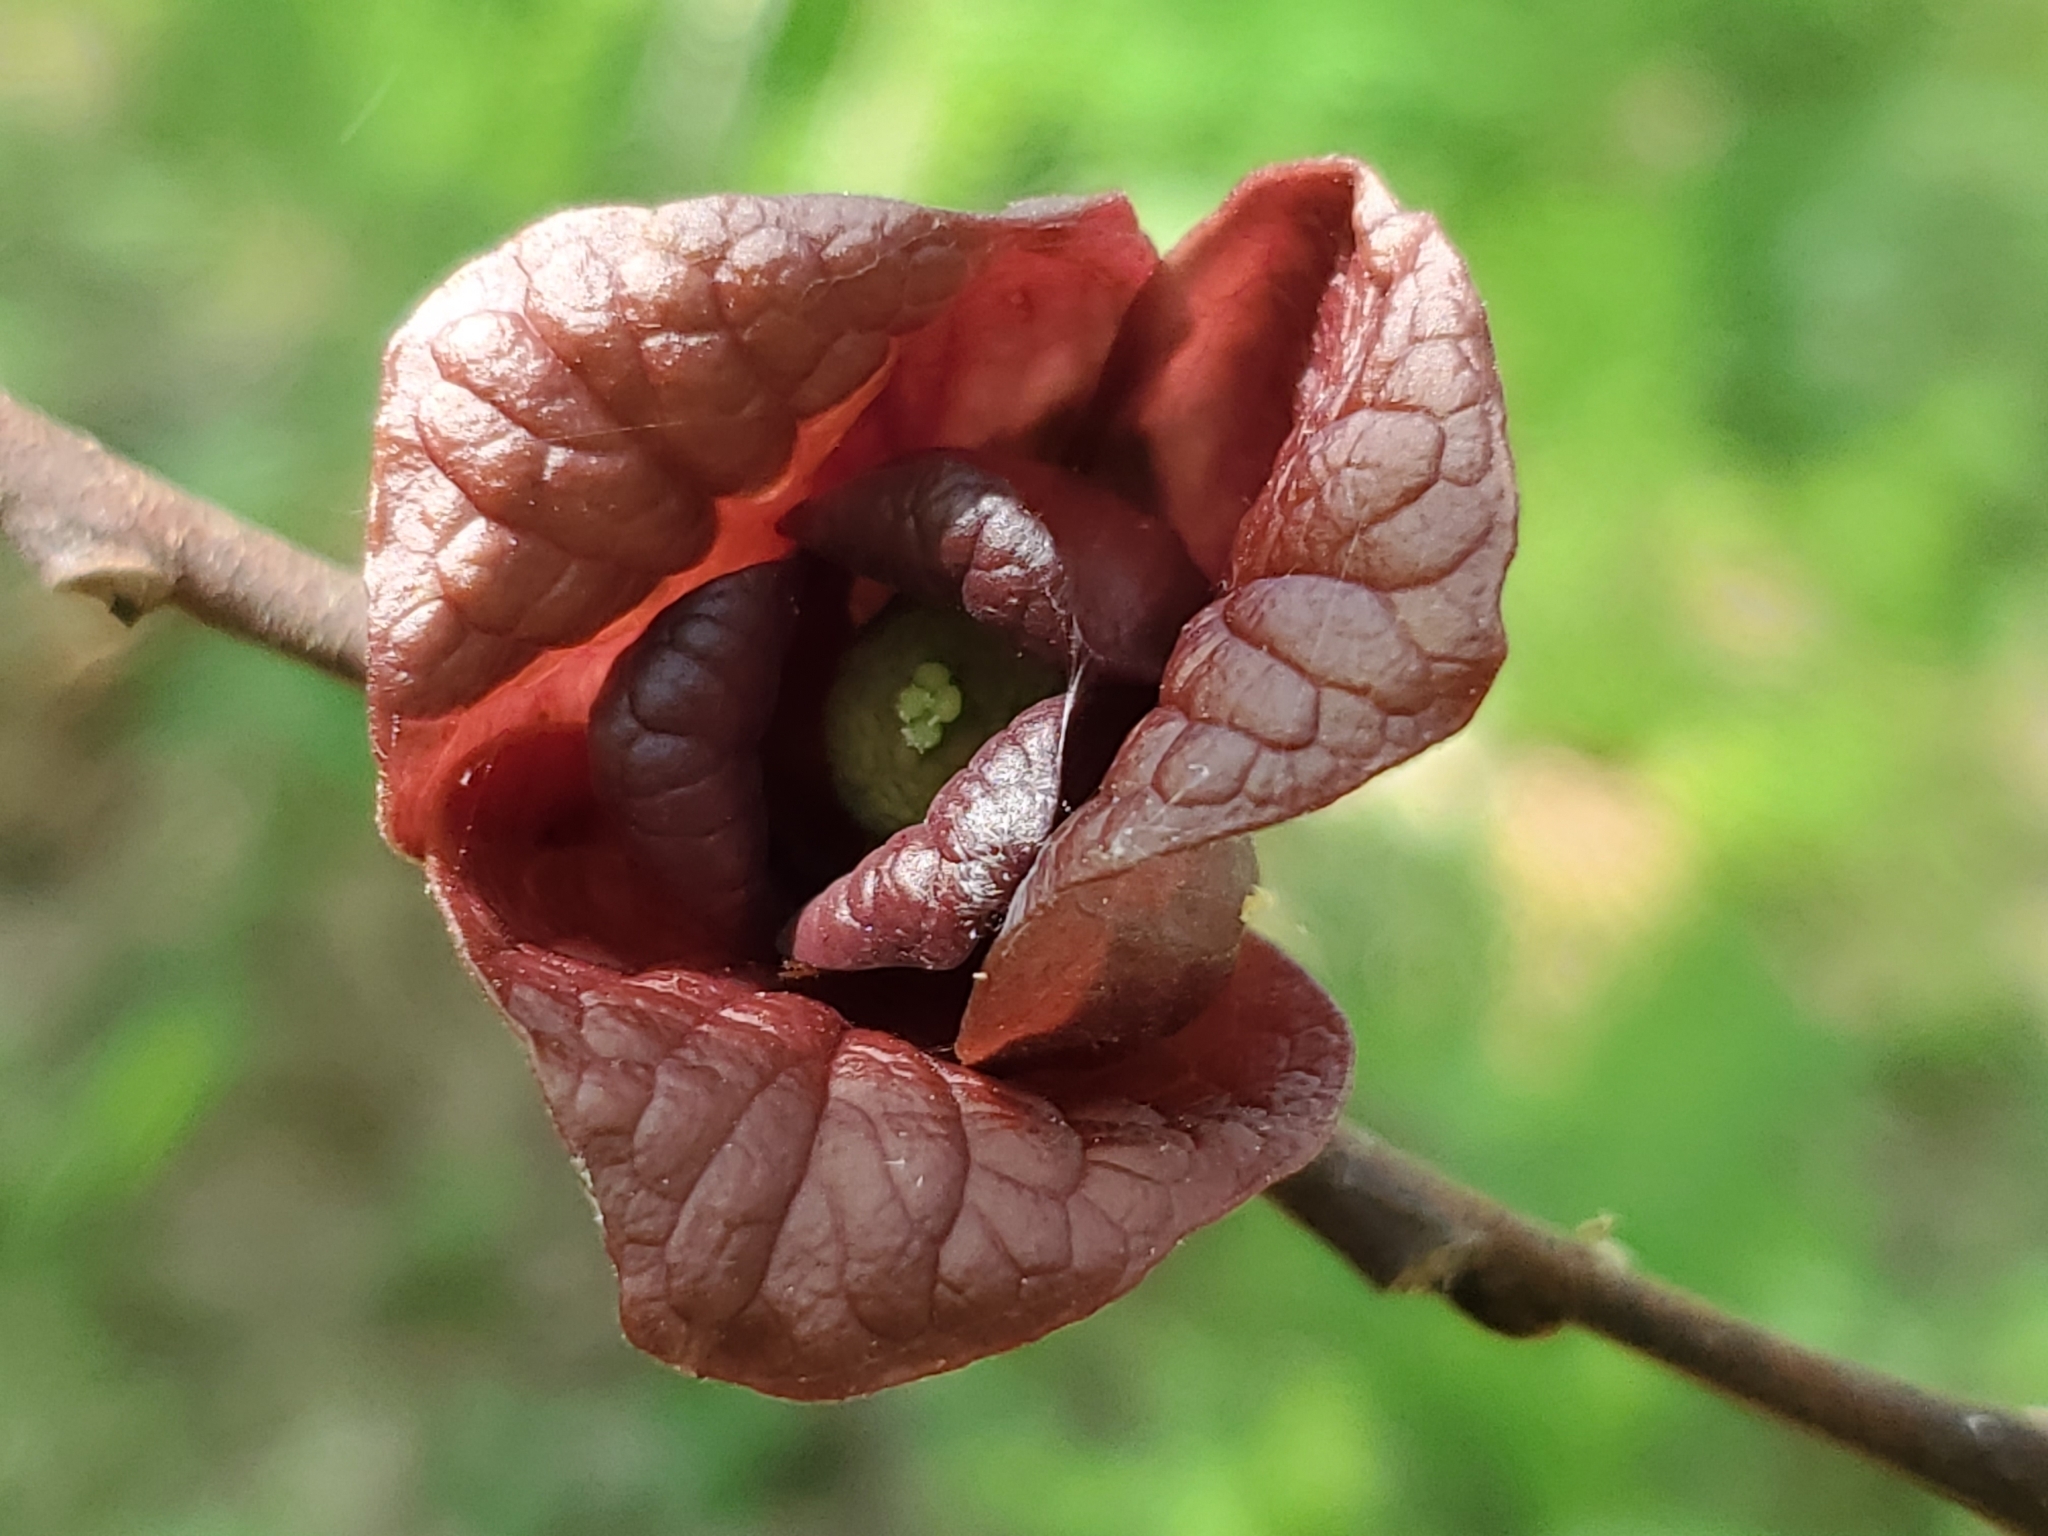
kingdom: Plantae
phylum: Tracheophyta
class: Magnoliopsida
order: Magnoliales
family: Annonaceae
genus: Asimina
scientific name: Asimina triloba
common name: Dog-banana
